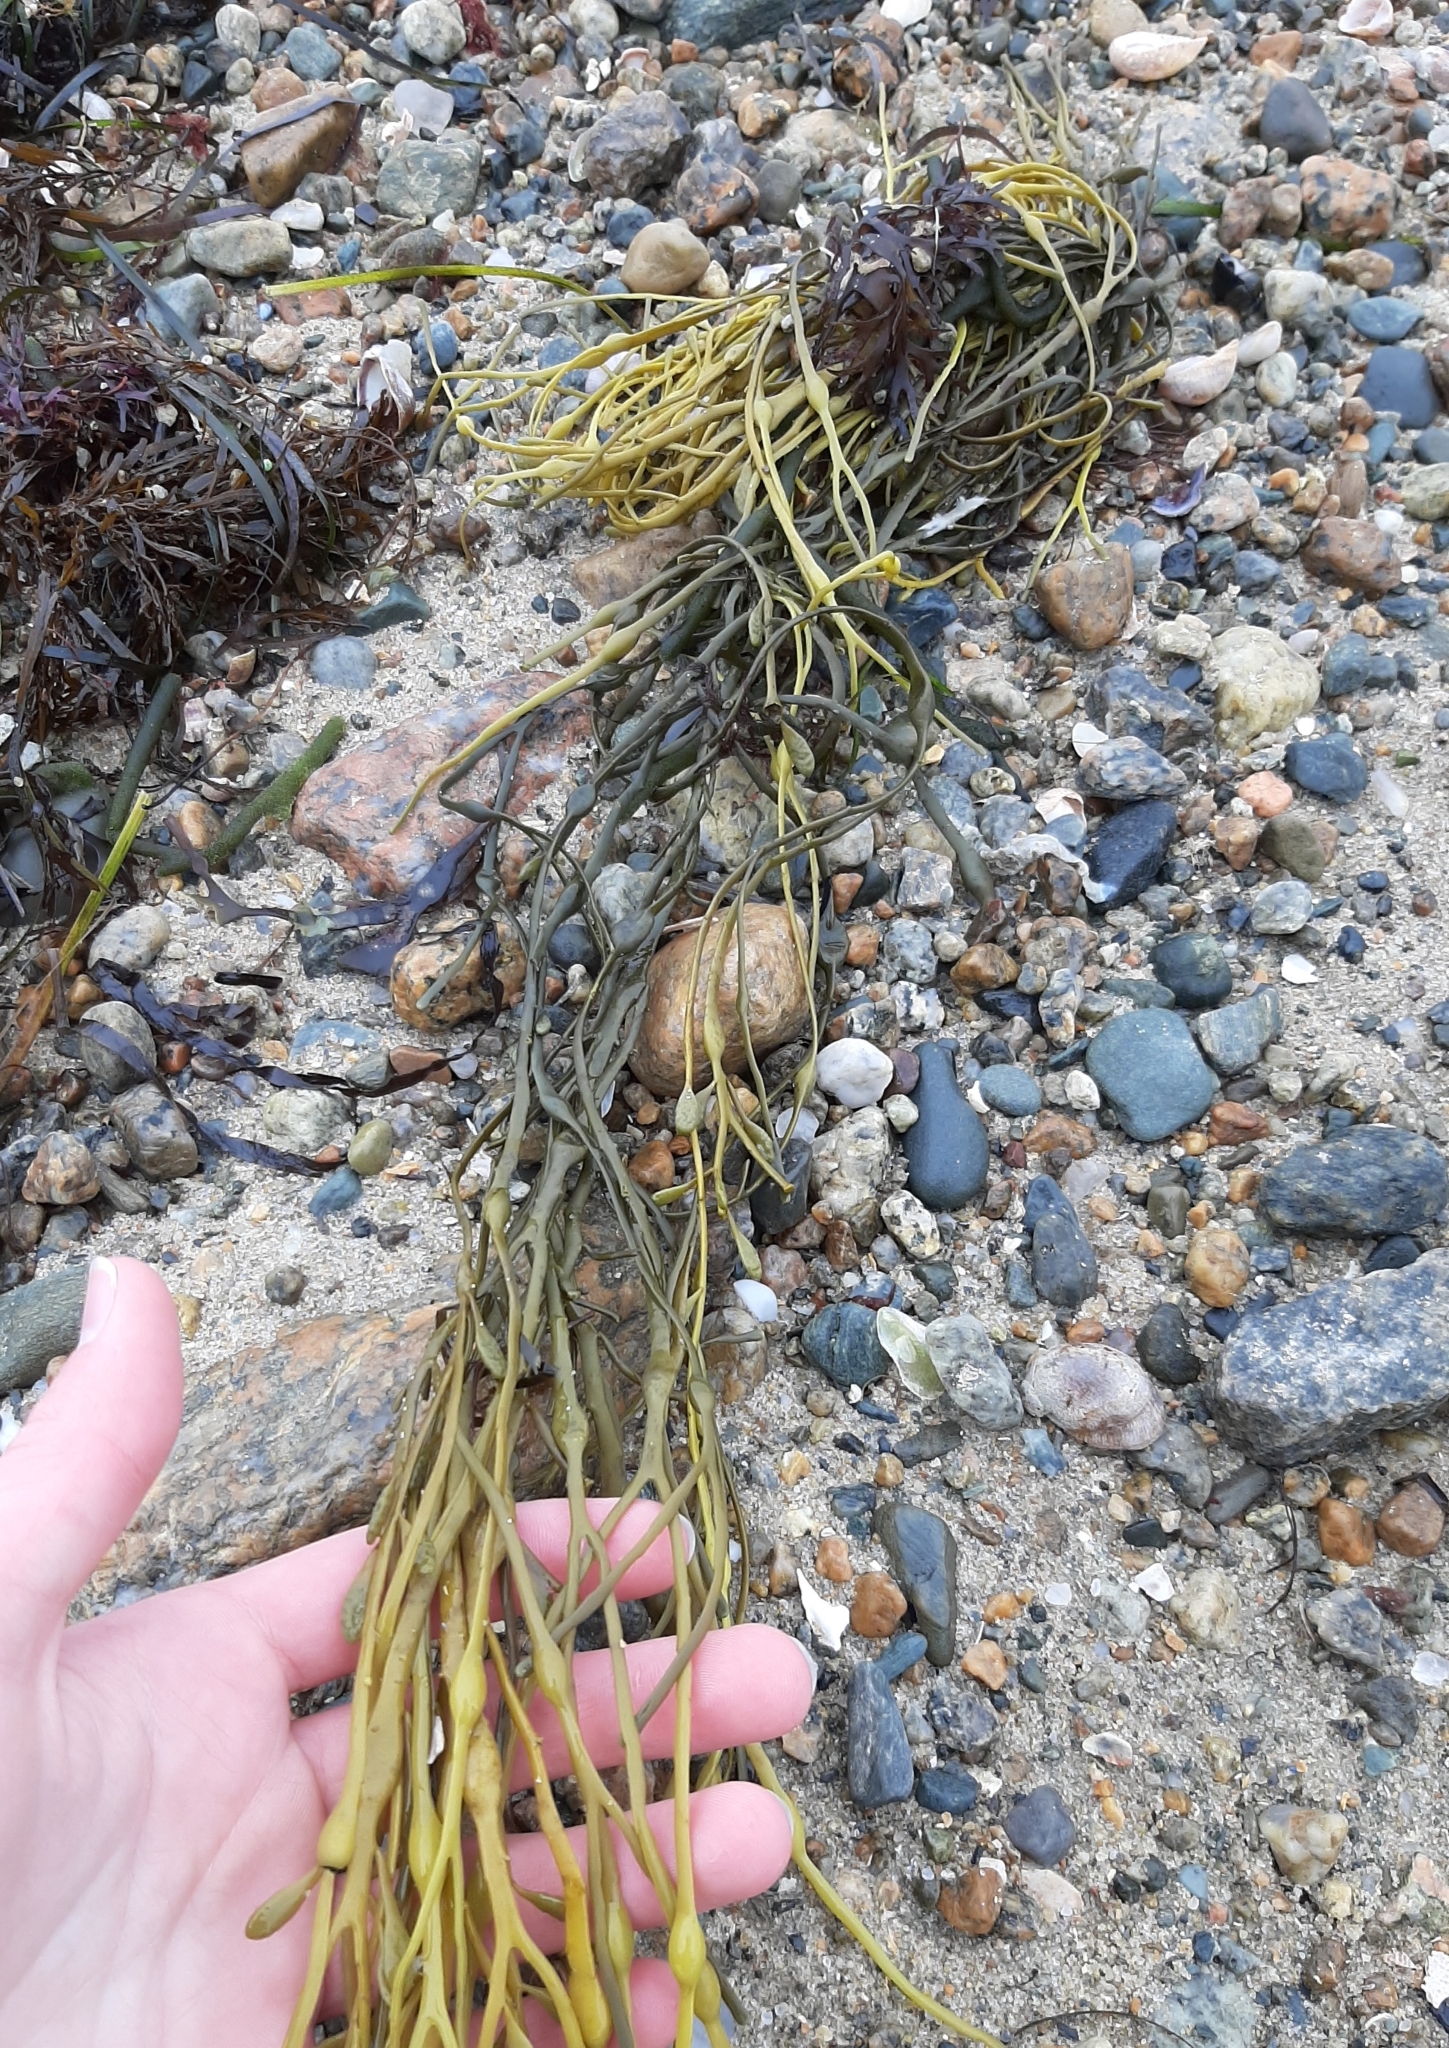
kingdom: Chromista
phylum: Ochrophyta
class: Phaeophyceae
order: Fucales
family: Fucaceae
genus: Ascophyllum
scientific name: Ascophyllum nodosum
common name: Knotted wrack
